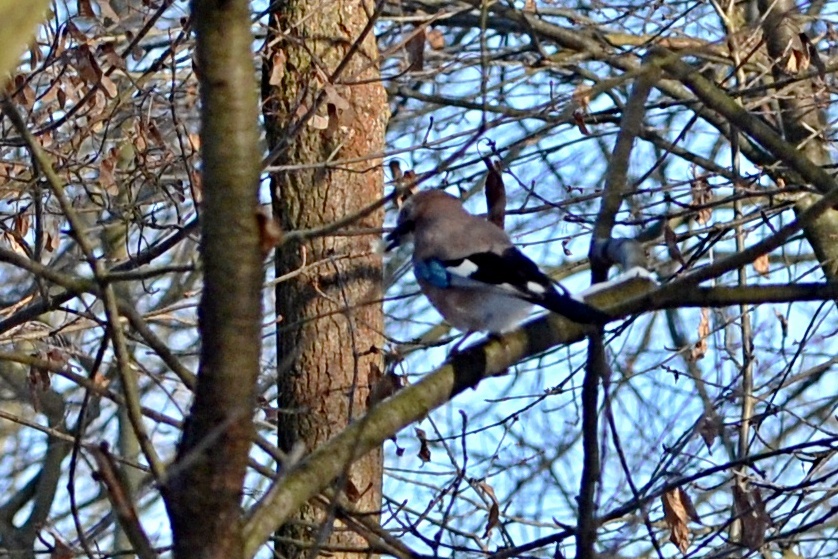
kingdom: Animalia
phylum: Chordata
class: Aves
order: Passeriformes
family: Corvidae
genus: Garrulus
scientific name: Garrulus glandarius
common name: Eurasian jay
